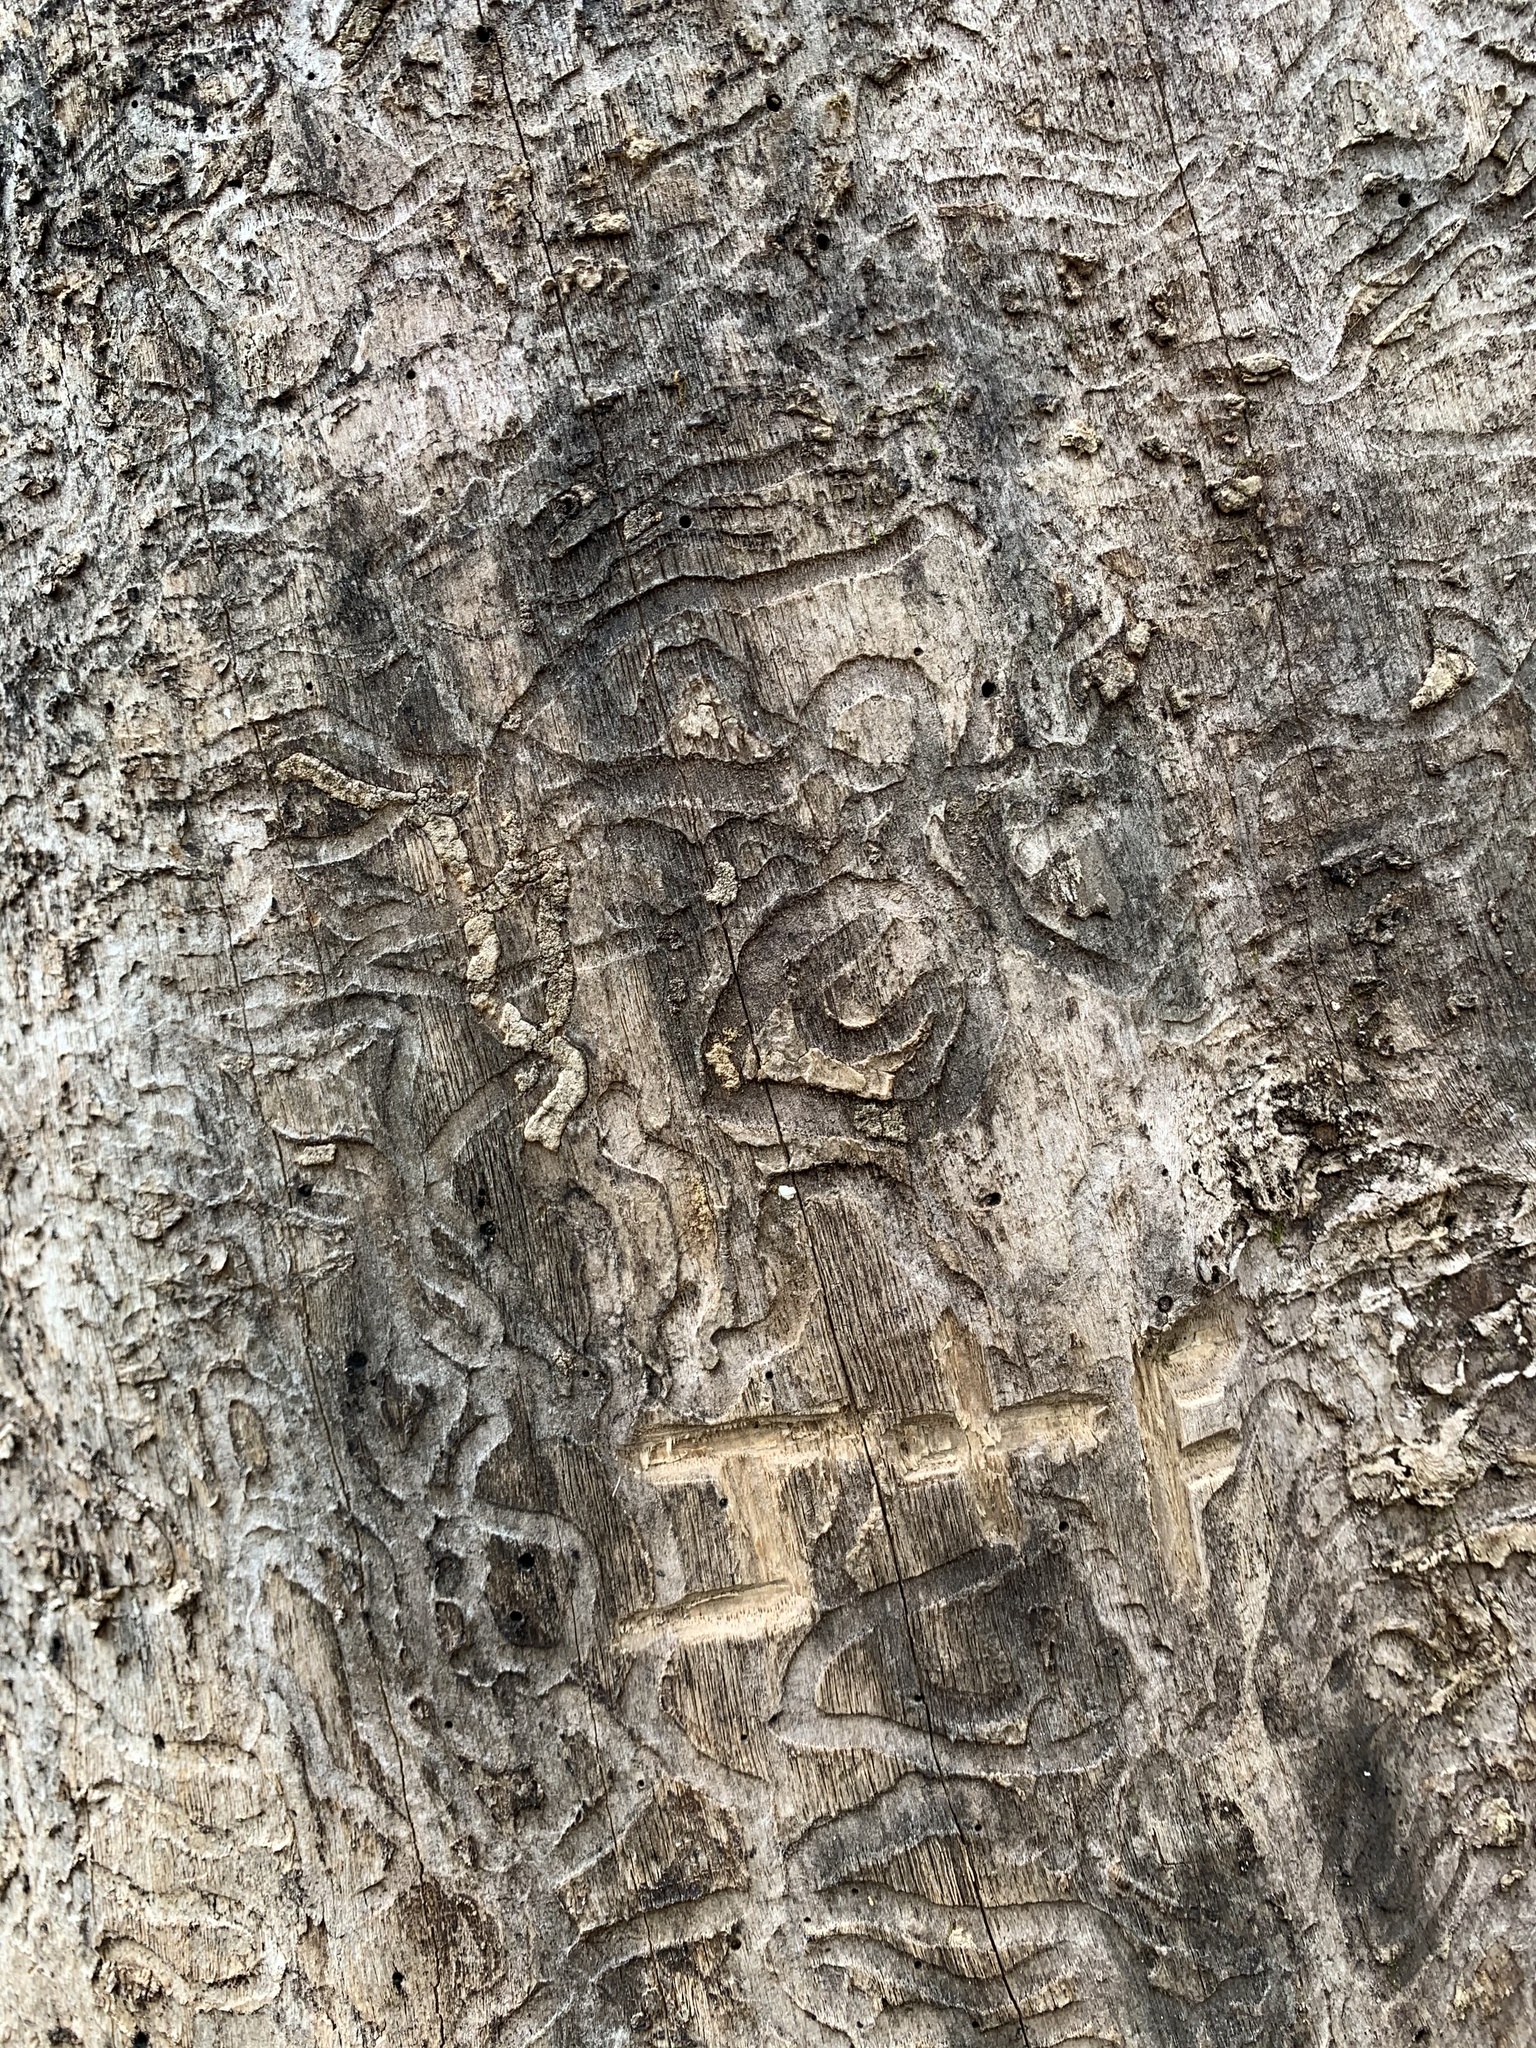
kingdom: Animalia
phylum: Arthropoda
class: Insecta
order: Coleoptera
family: Buprestidae
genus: Agrilus
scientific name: Agrilus planipennis
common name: Emerald ash borer
